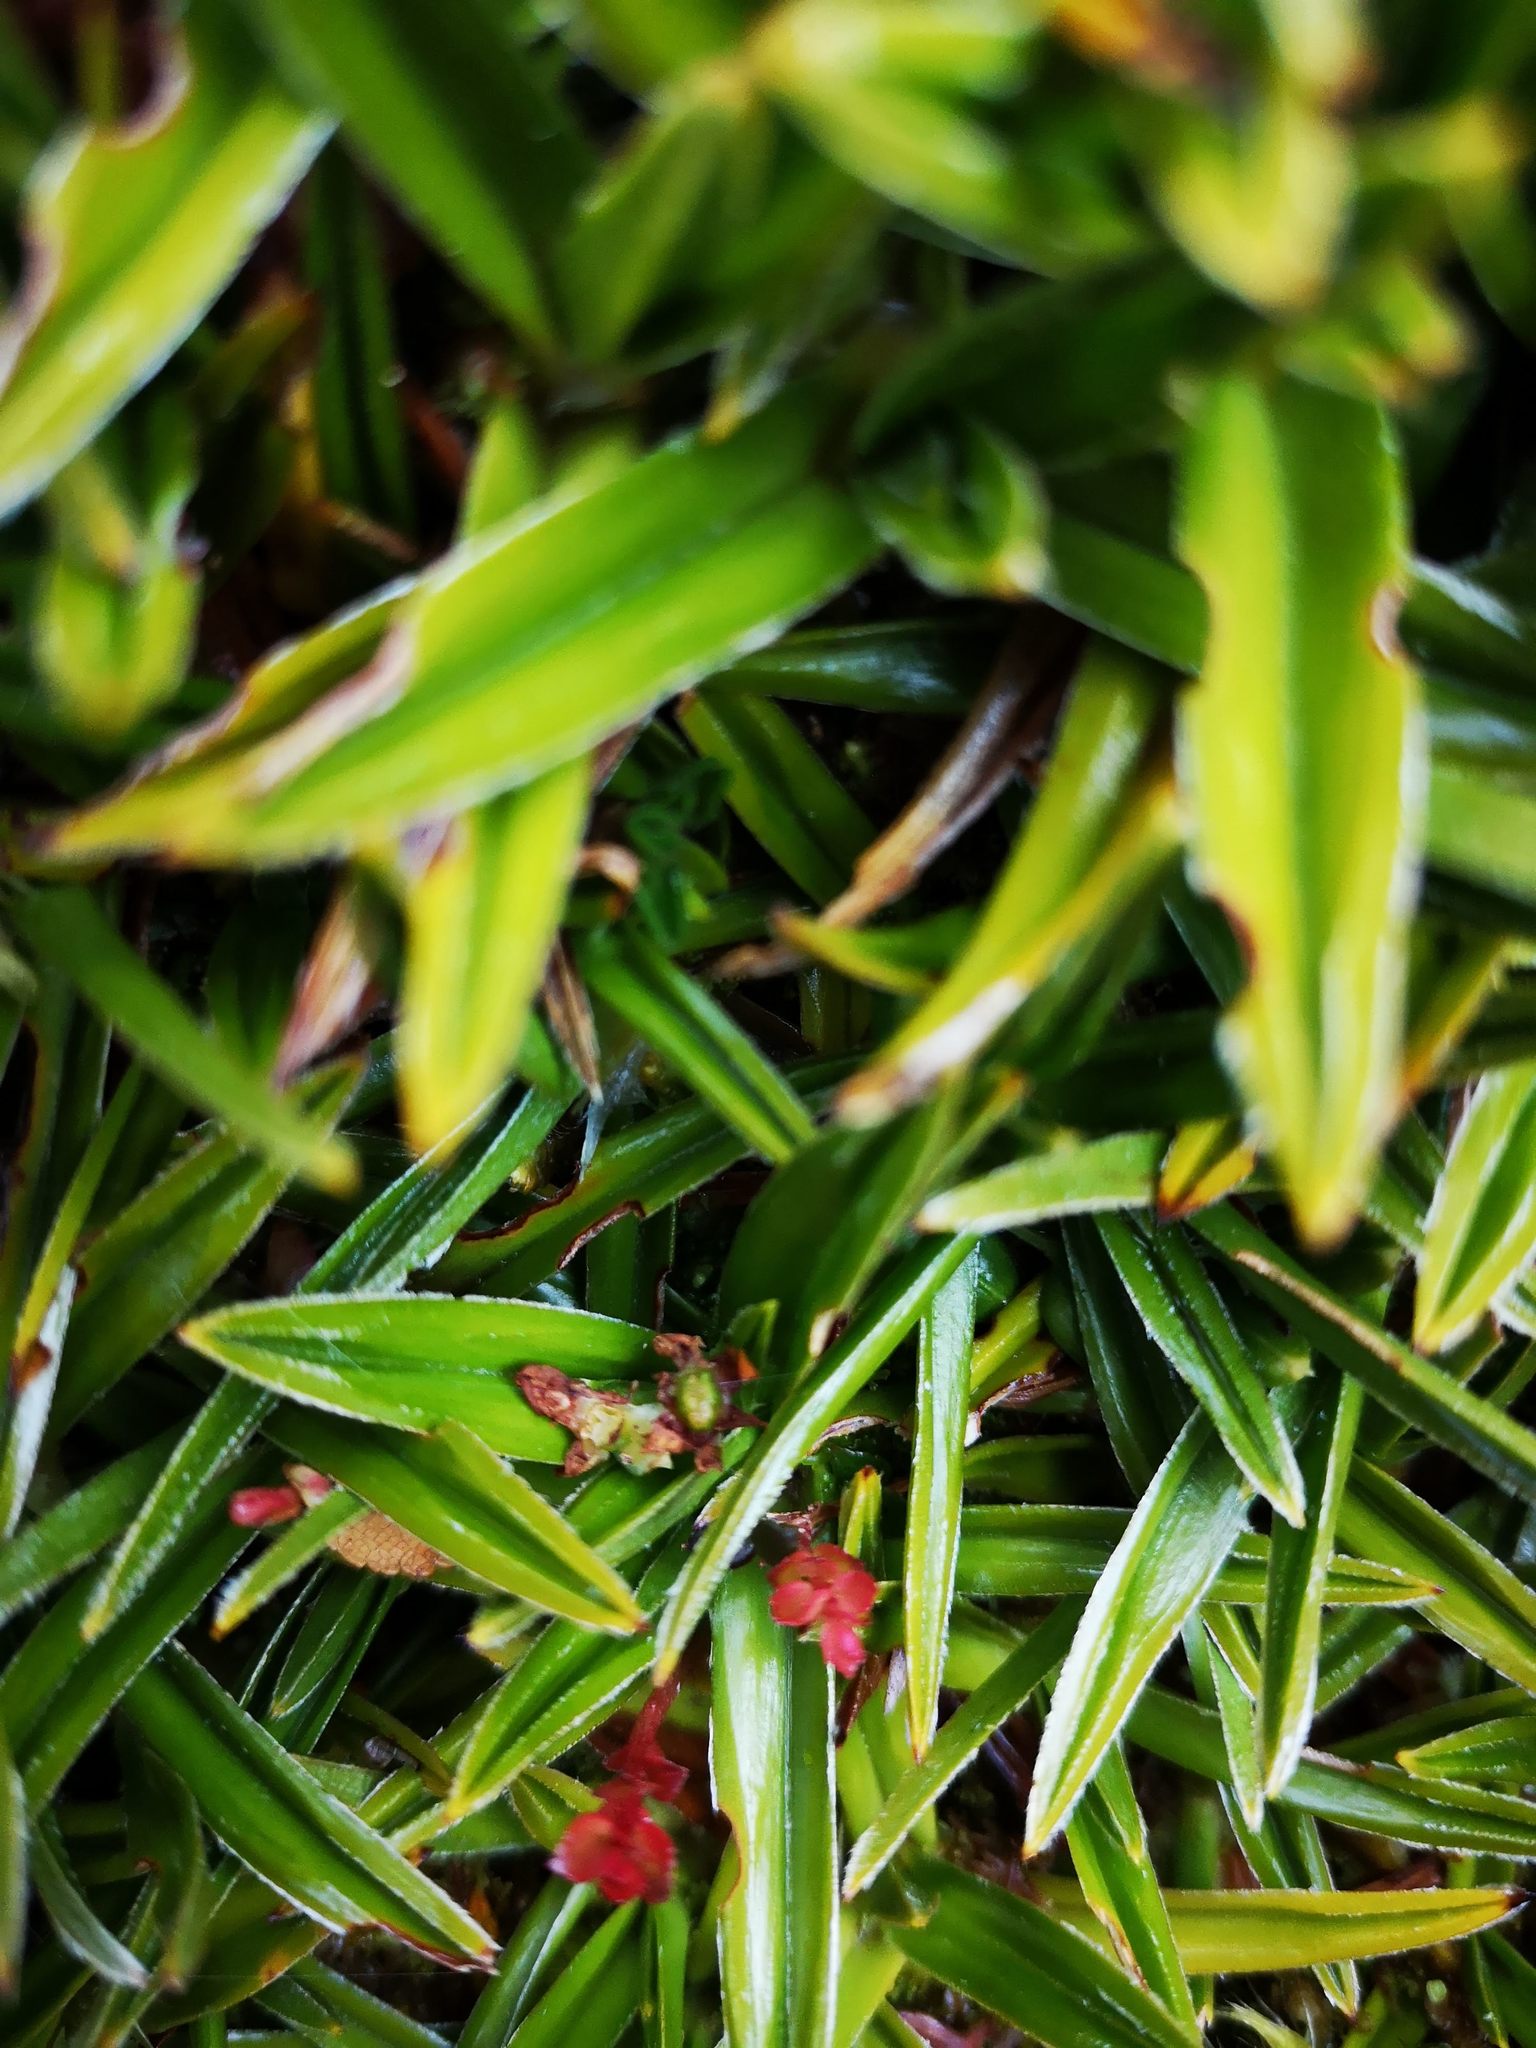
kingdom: Plantae
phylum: Tracheophyta
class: Liliopsida
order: Asparagales
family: Asteliaceae
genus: Astelia
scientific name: Astelia pumila
